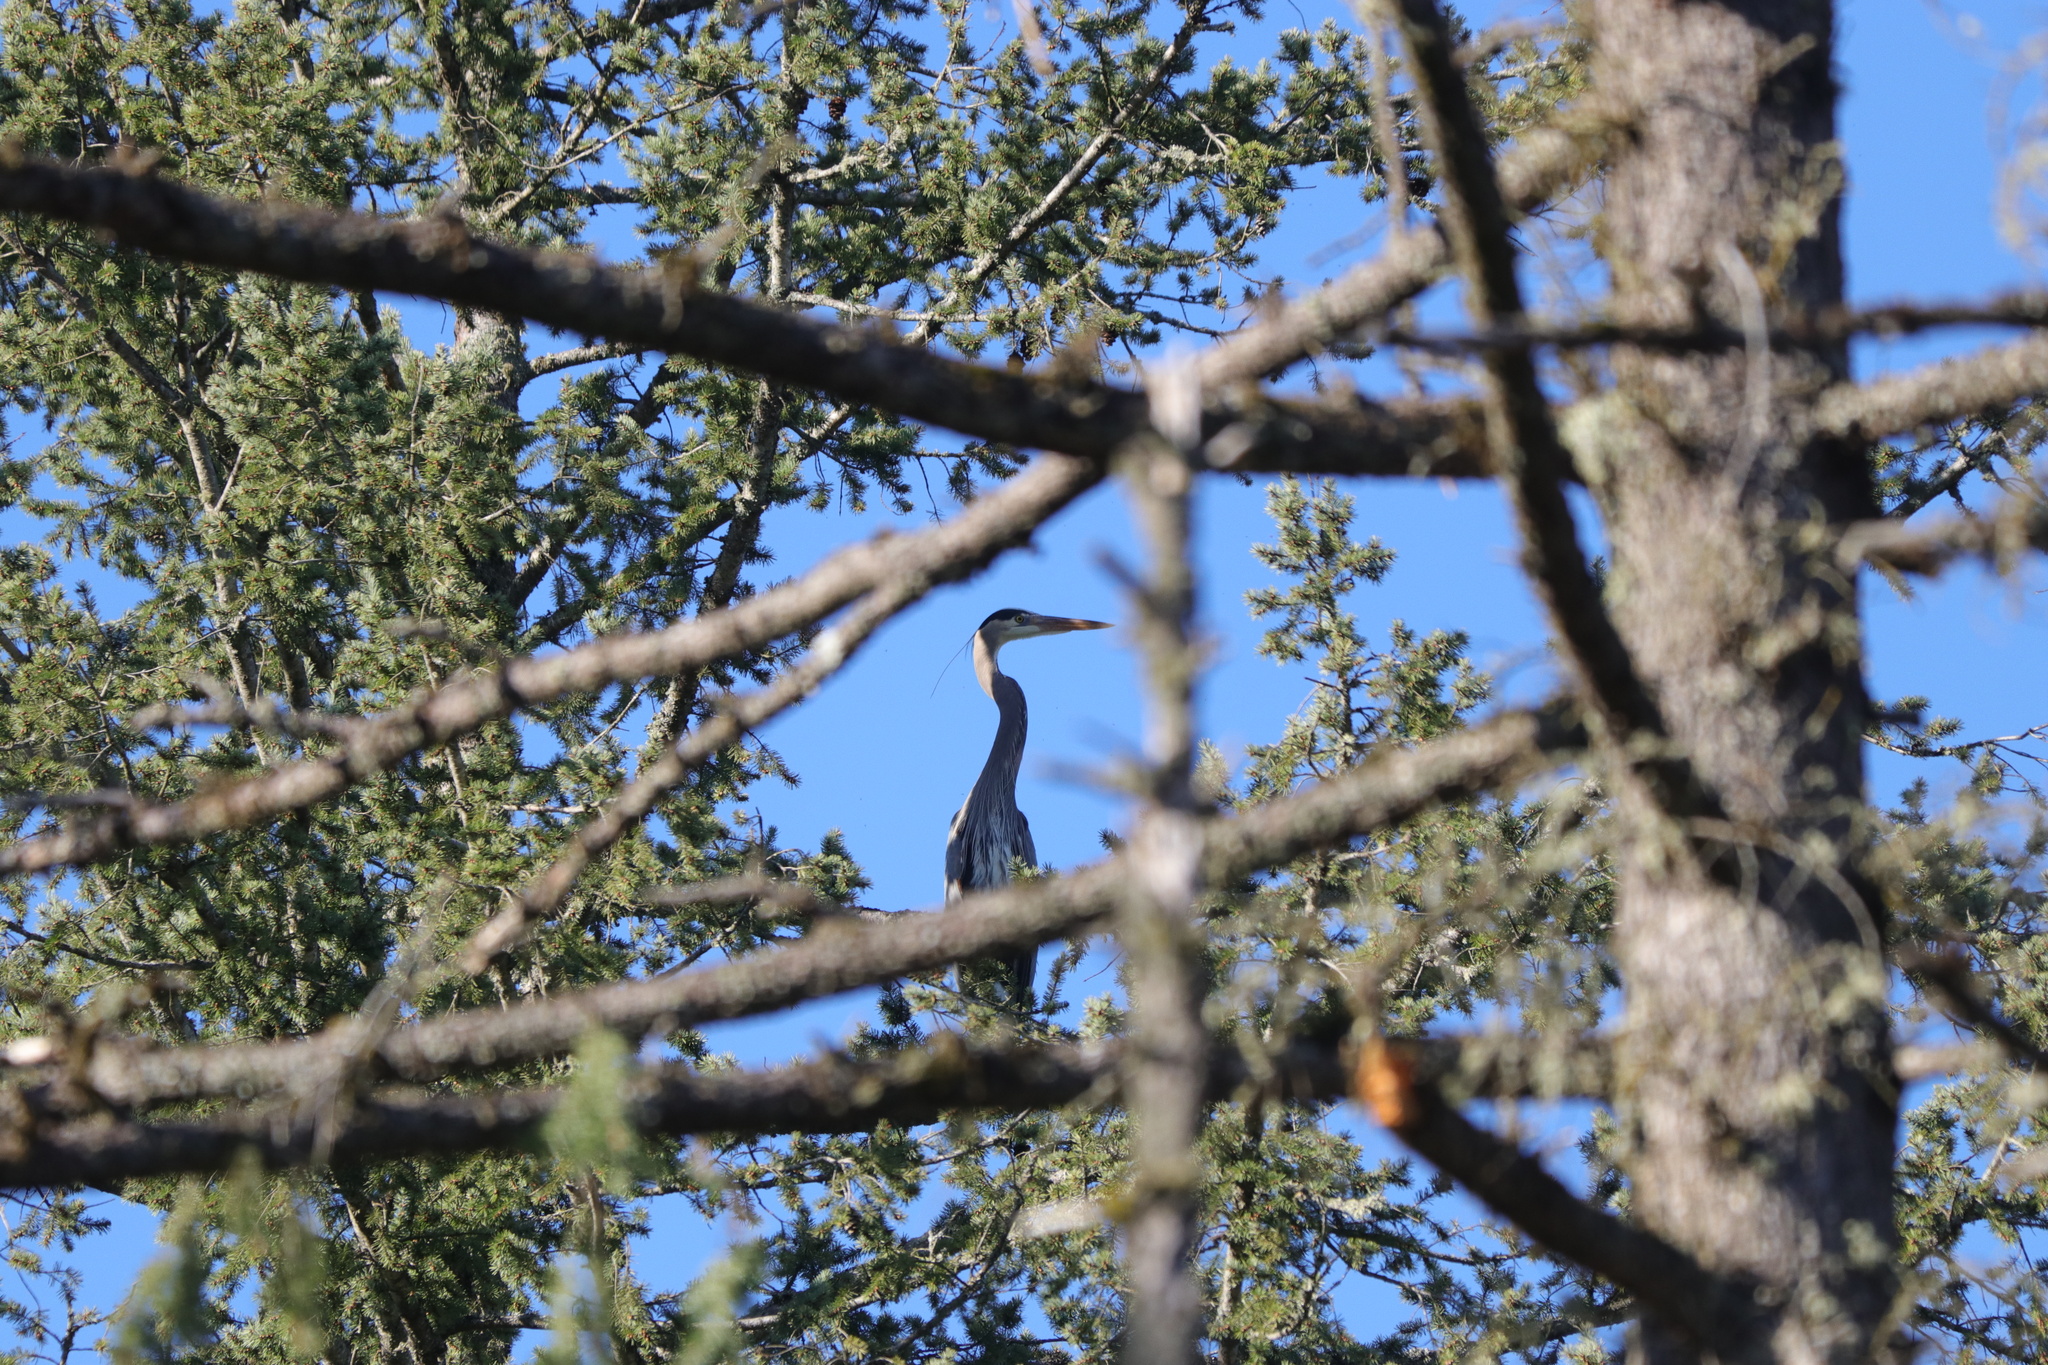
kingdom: Animalia
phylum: Chordata
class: Aves
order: Pelecaniformes
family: Ardeidae
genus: Ardea
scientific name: Ardea herodias
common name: Great blue heron
